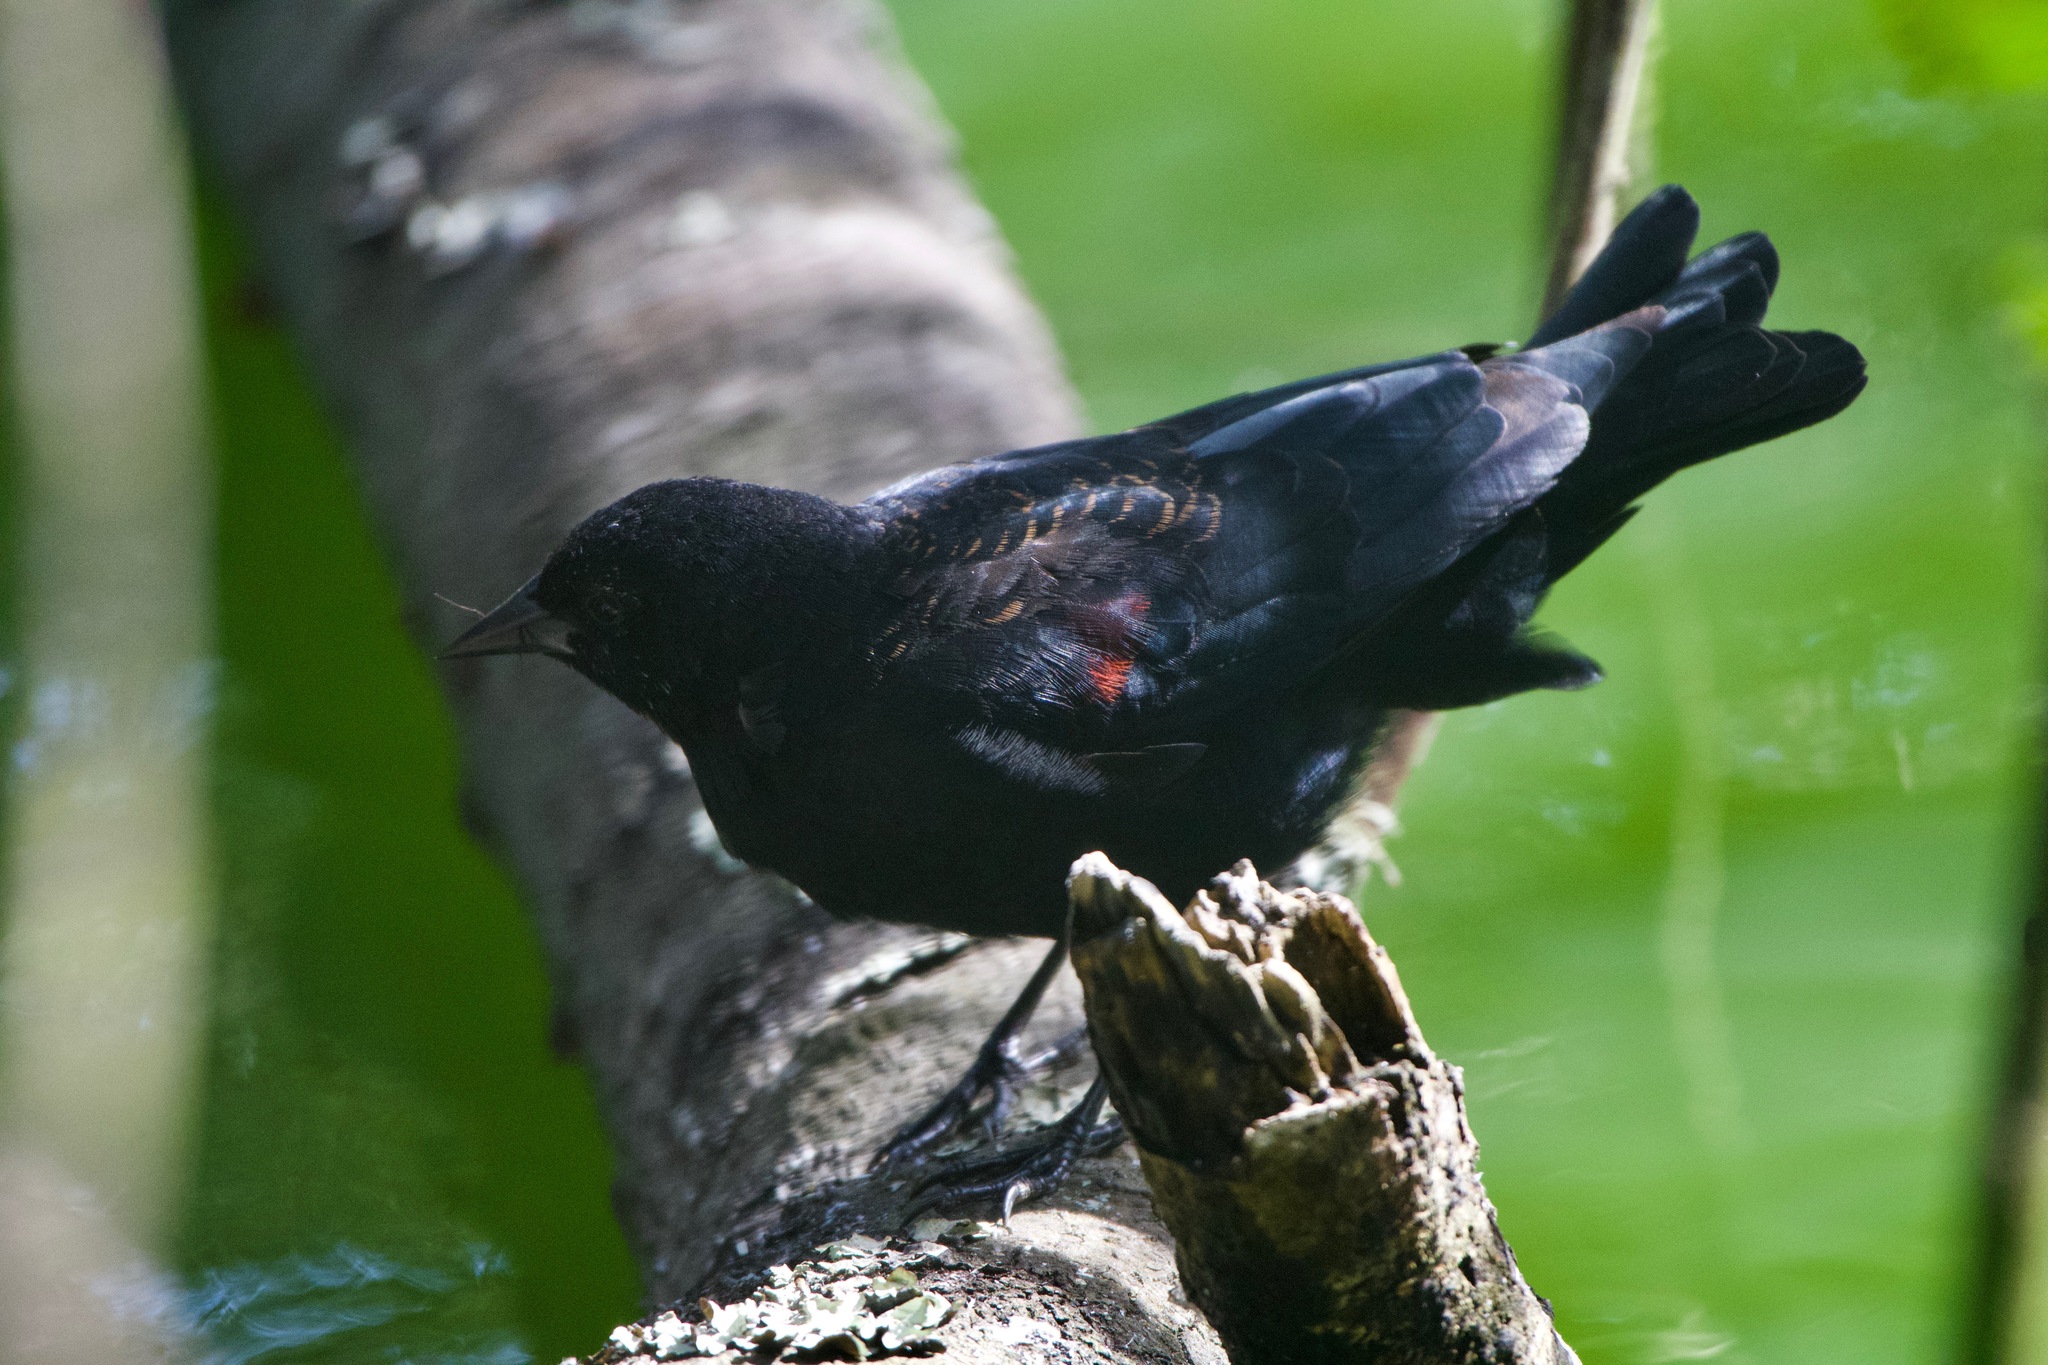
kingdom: Animalia
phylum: Chordata
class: Aves
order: Passeriformes
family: Icteridae
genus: Agelaius
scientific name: Agelaius phoeniceus
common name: Red-winged blackbird
